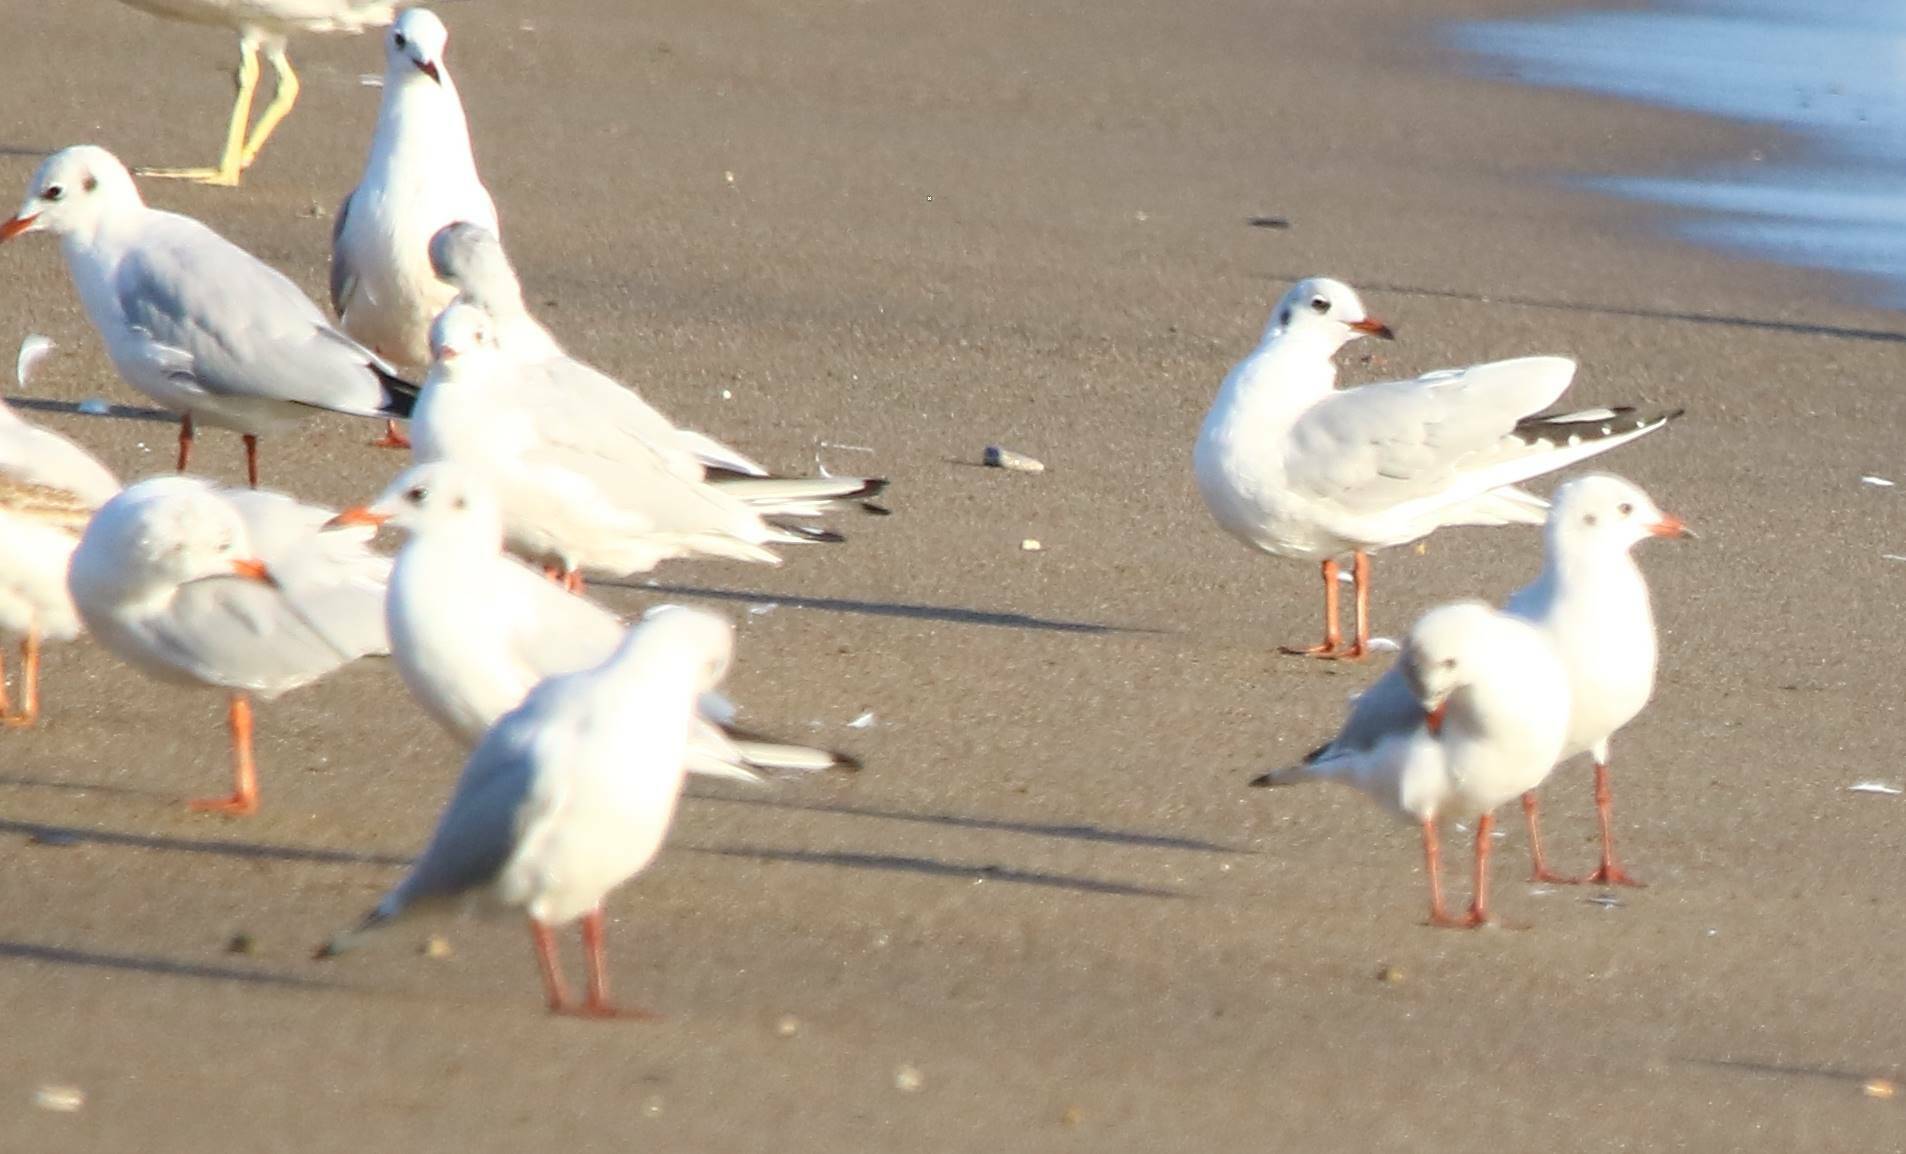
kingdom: Animalia
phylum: Chordata
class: Aves
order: Charadriiformes
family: Laridae
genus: Chroicocephalus
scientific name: Chroicocephalus ridibundus
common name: Black-headed gull
